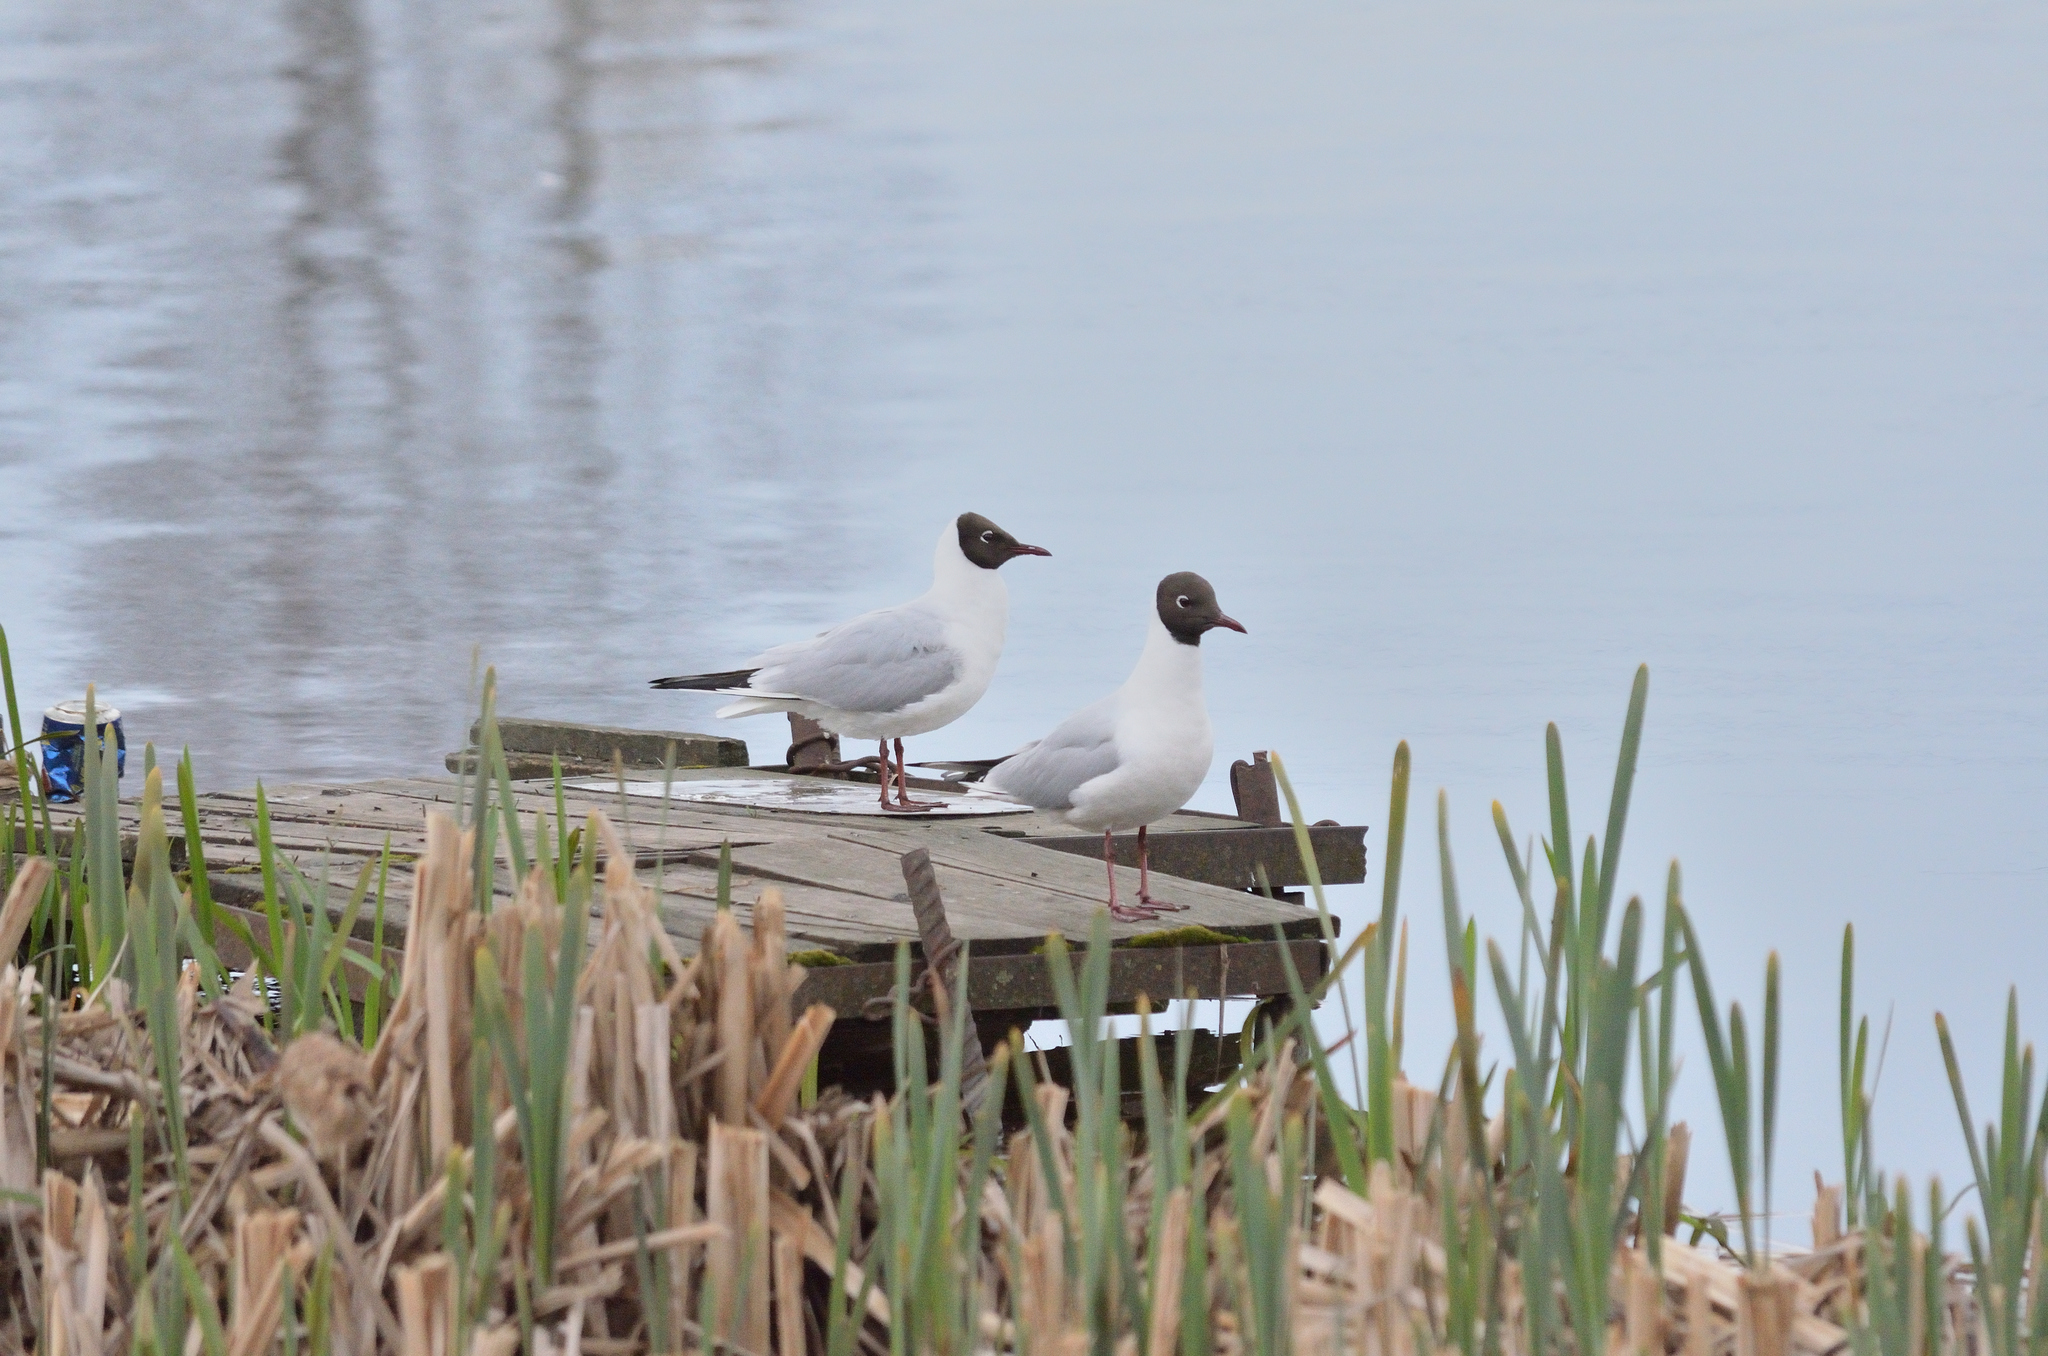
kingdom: Animalia
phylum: Chordata
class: Aves
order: Charadriiformes
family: Laridae
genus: Chroicocephalus
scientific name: Chroicocephalus ridibundus
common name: Black-headed gull
